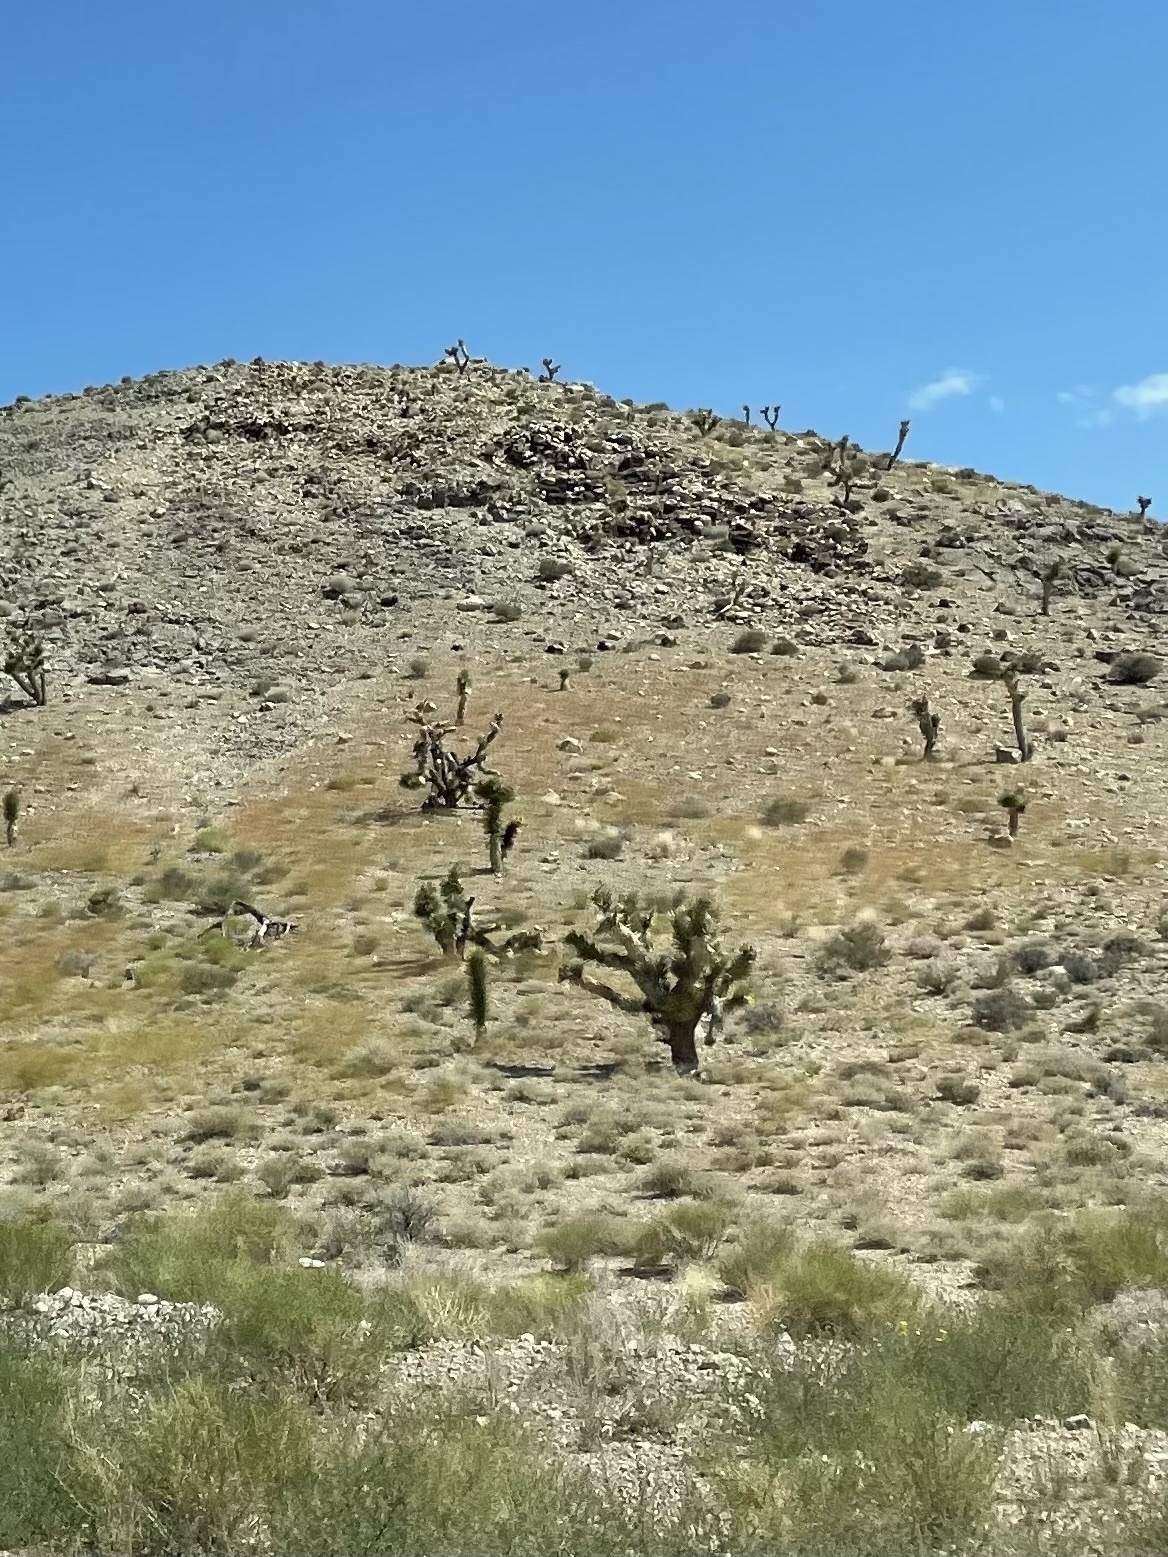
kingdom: Plantae
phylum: Tracheophyta
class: Liliopsida
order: Asparagales
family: Asparagaceae
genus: Yucca
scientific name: Yucca brevifolia
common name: Joshua tree
